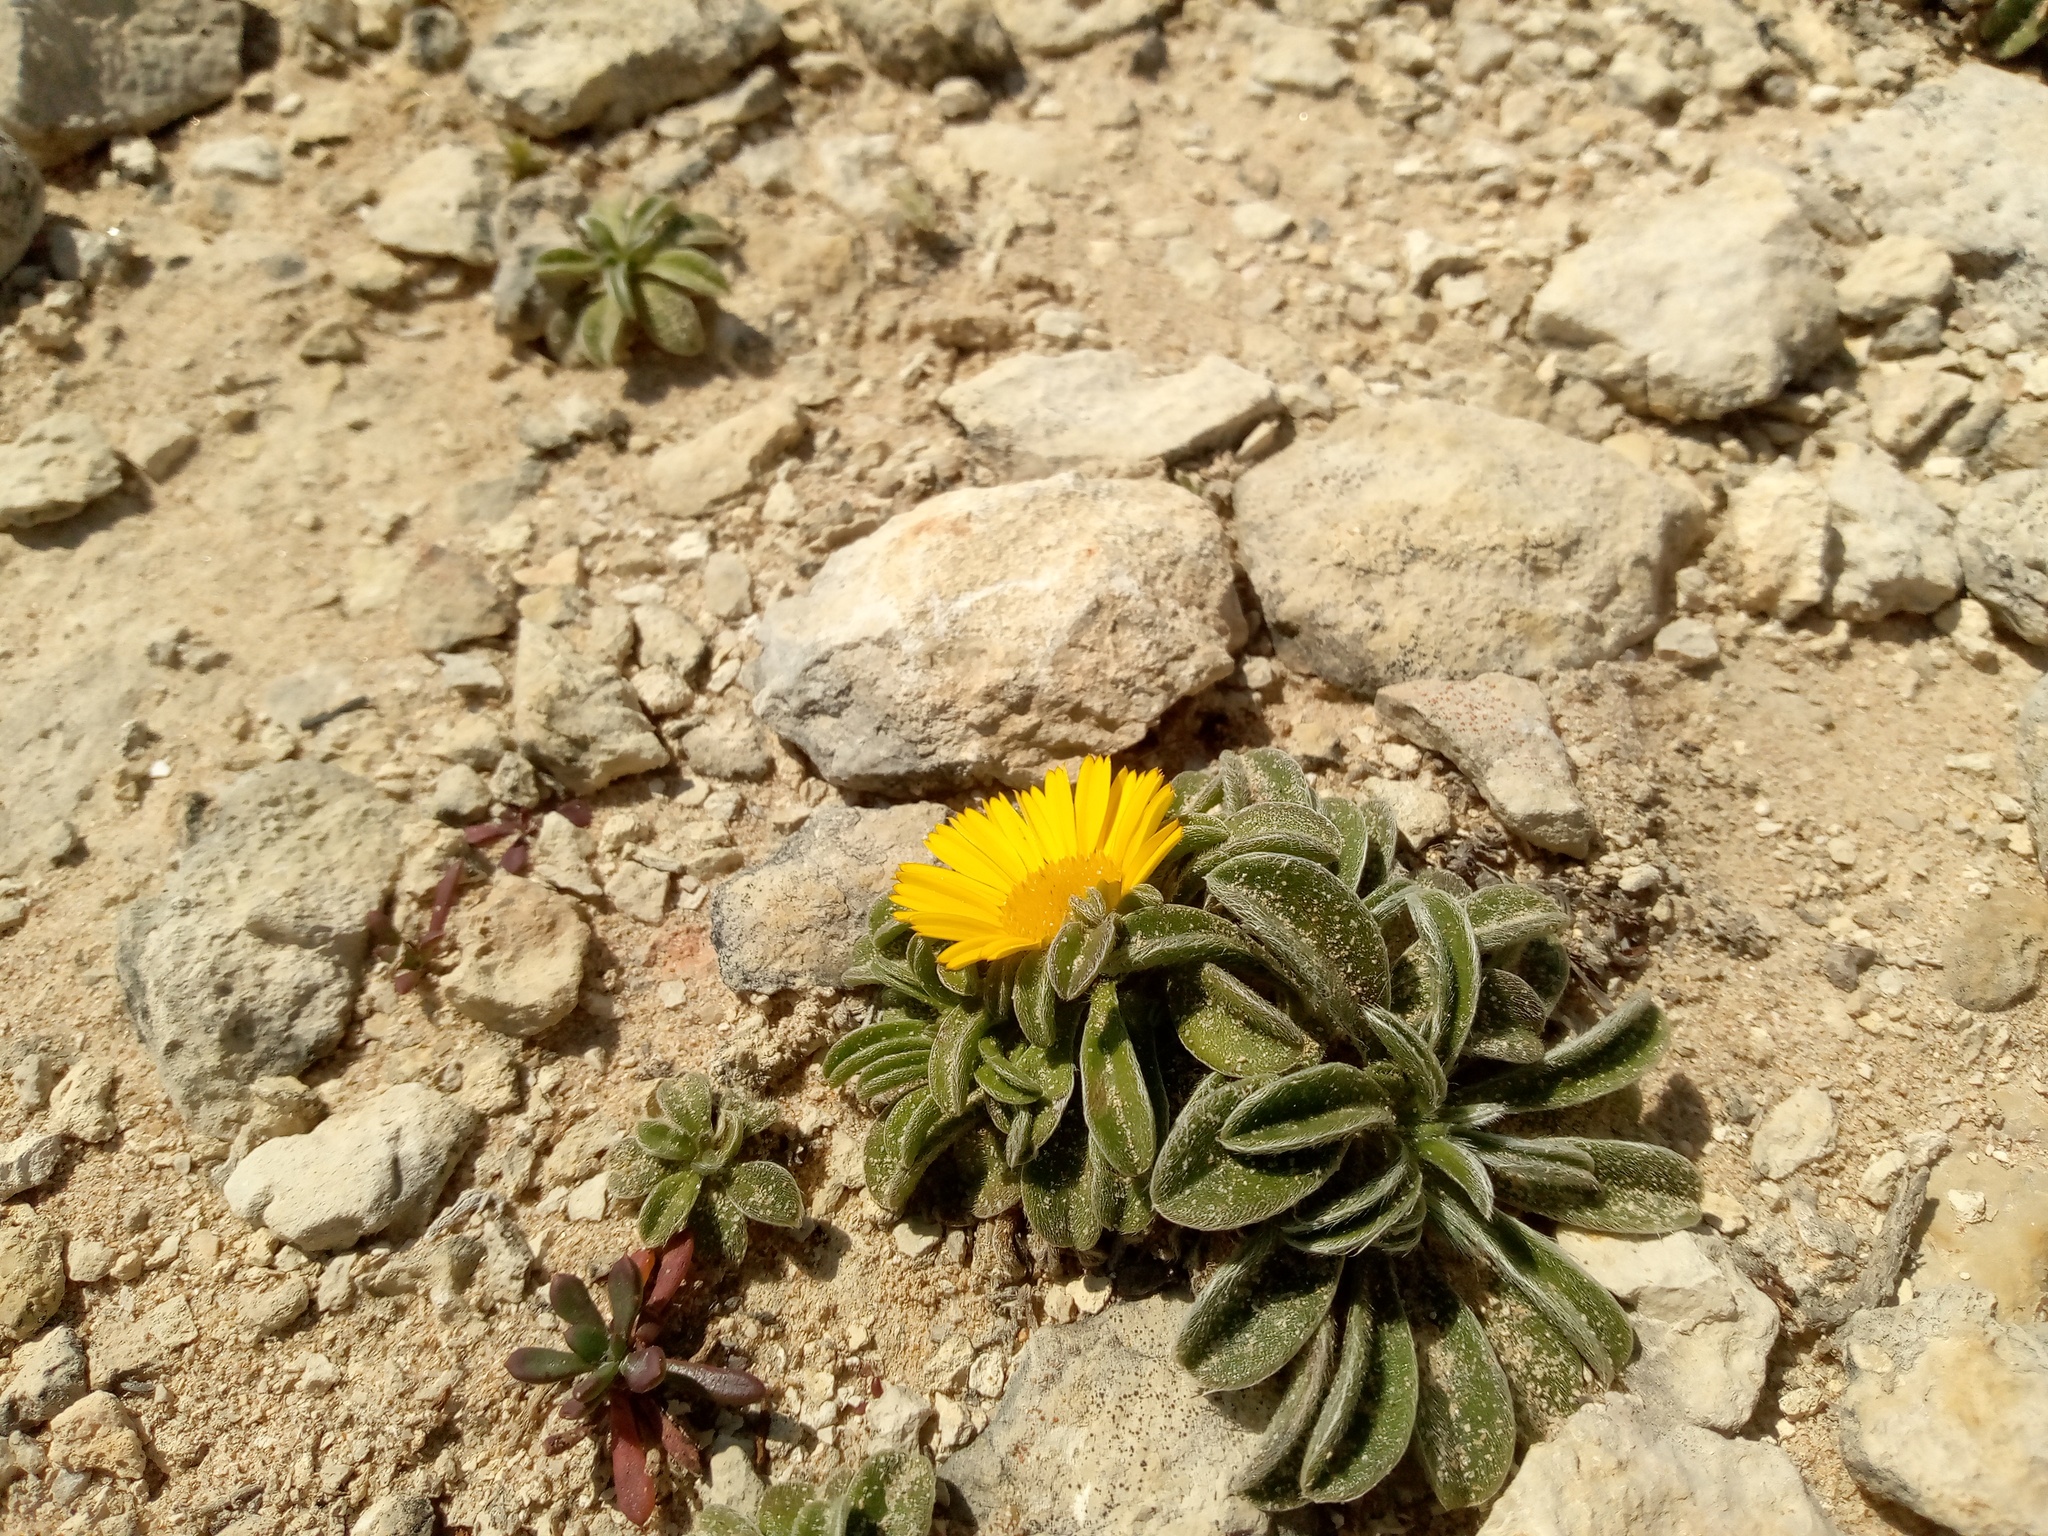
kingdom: Plantae
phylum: Tracheophyta
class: Magnoliopsida
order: Asterales
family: Asteraceae
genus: Pallenis
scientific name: Pallenis maritima
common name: Golden coin daisy
